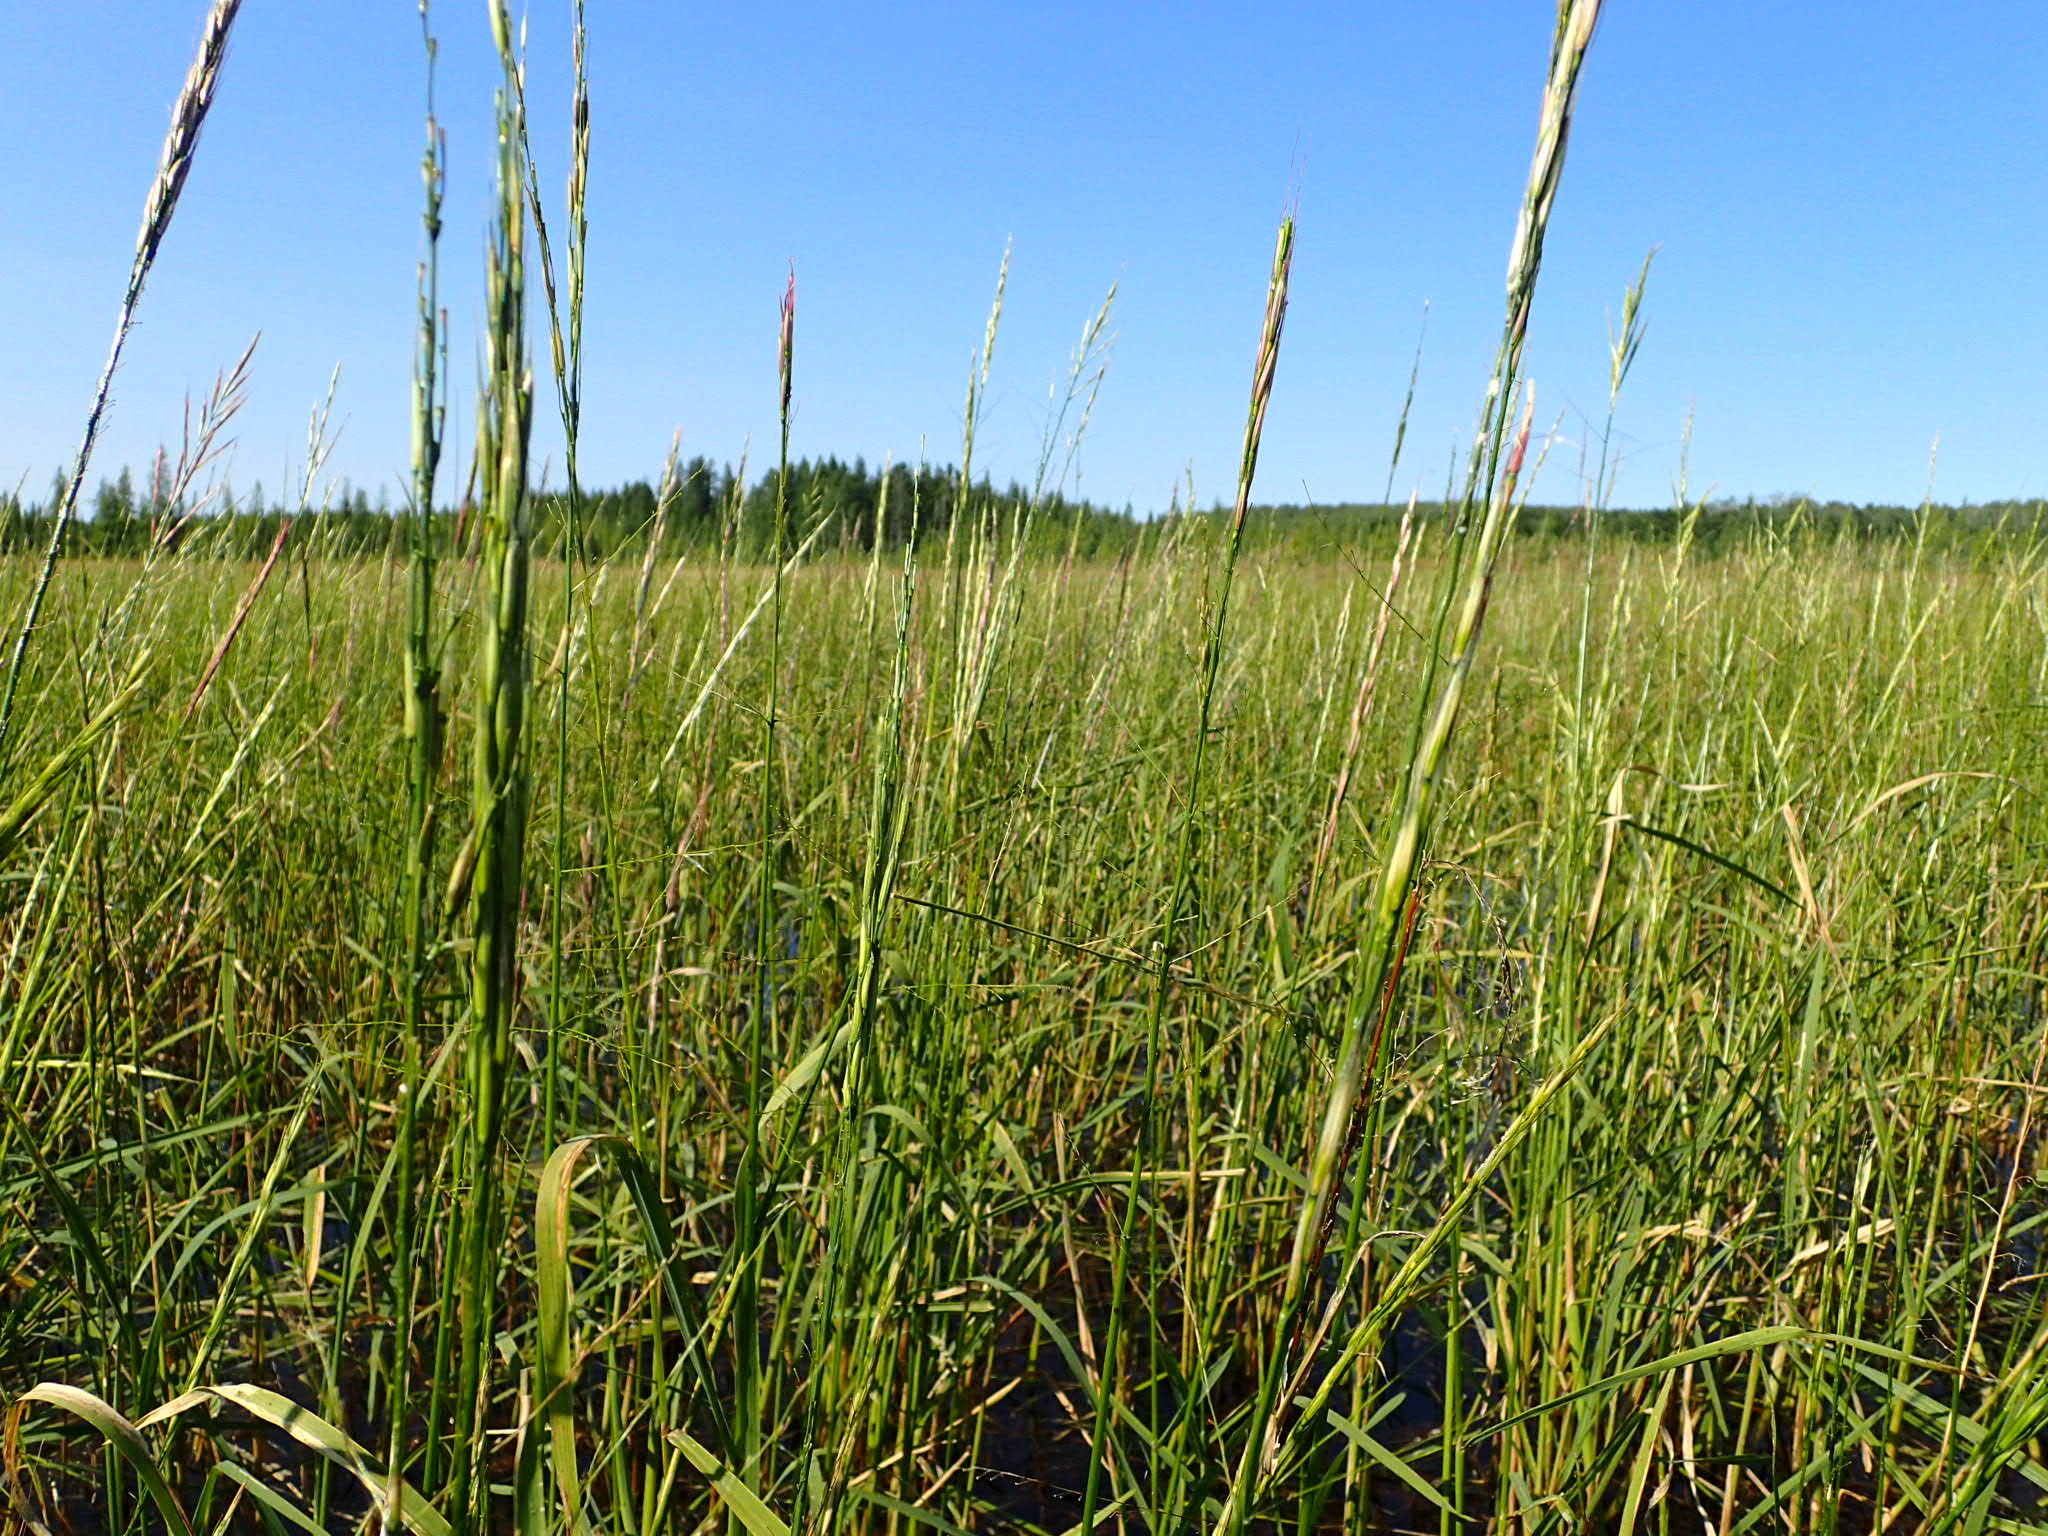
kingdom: Plantae
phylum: Tracheophyta
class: Liliopsida
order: Poales
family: Poaceae
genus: Zizania
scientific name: Zizania palustris
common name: Northern wild rice
